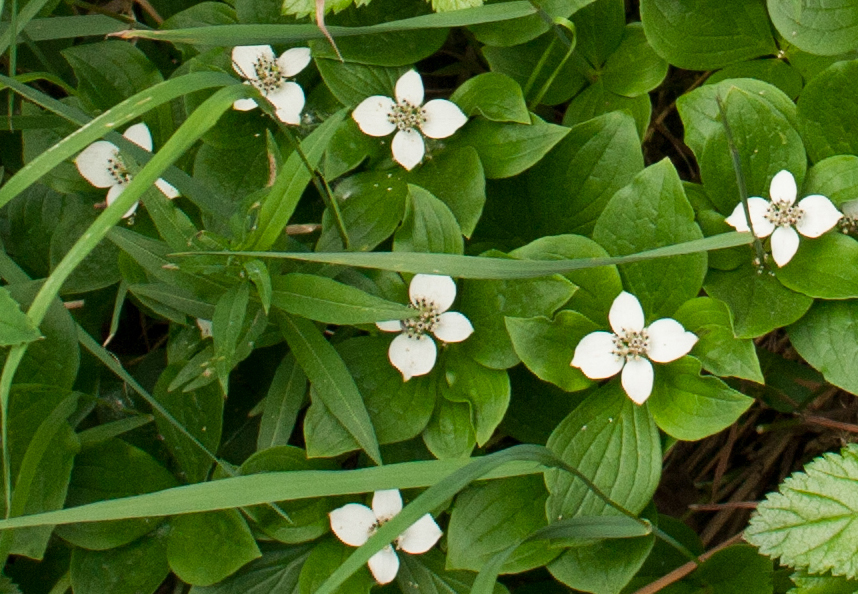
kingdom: Plantae
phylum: Tracheophyta
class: Magnoliopsida
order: Cornales
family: Cornaceae
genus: Cornus
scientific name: Cornus canadensis
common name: Creeping dogwood
